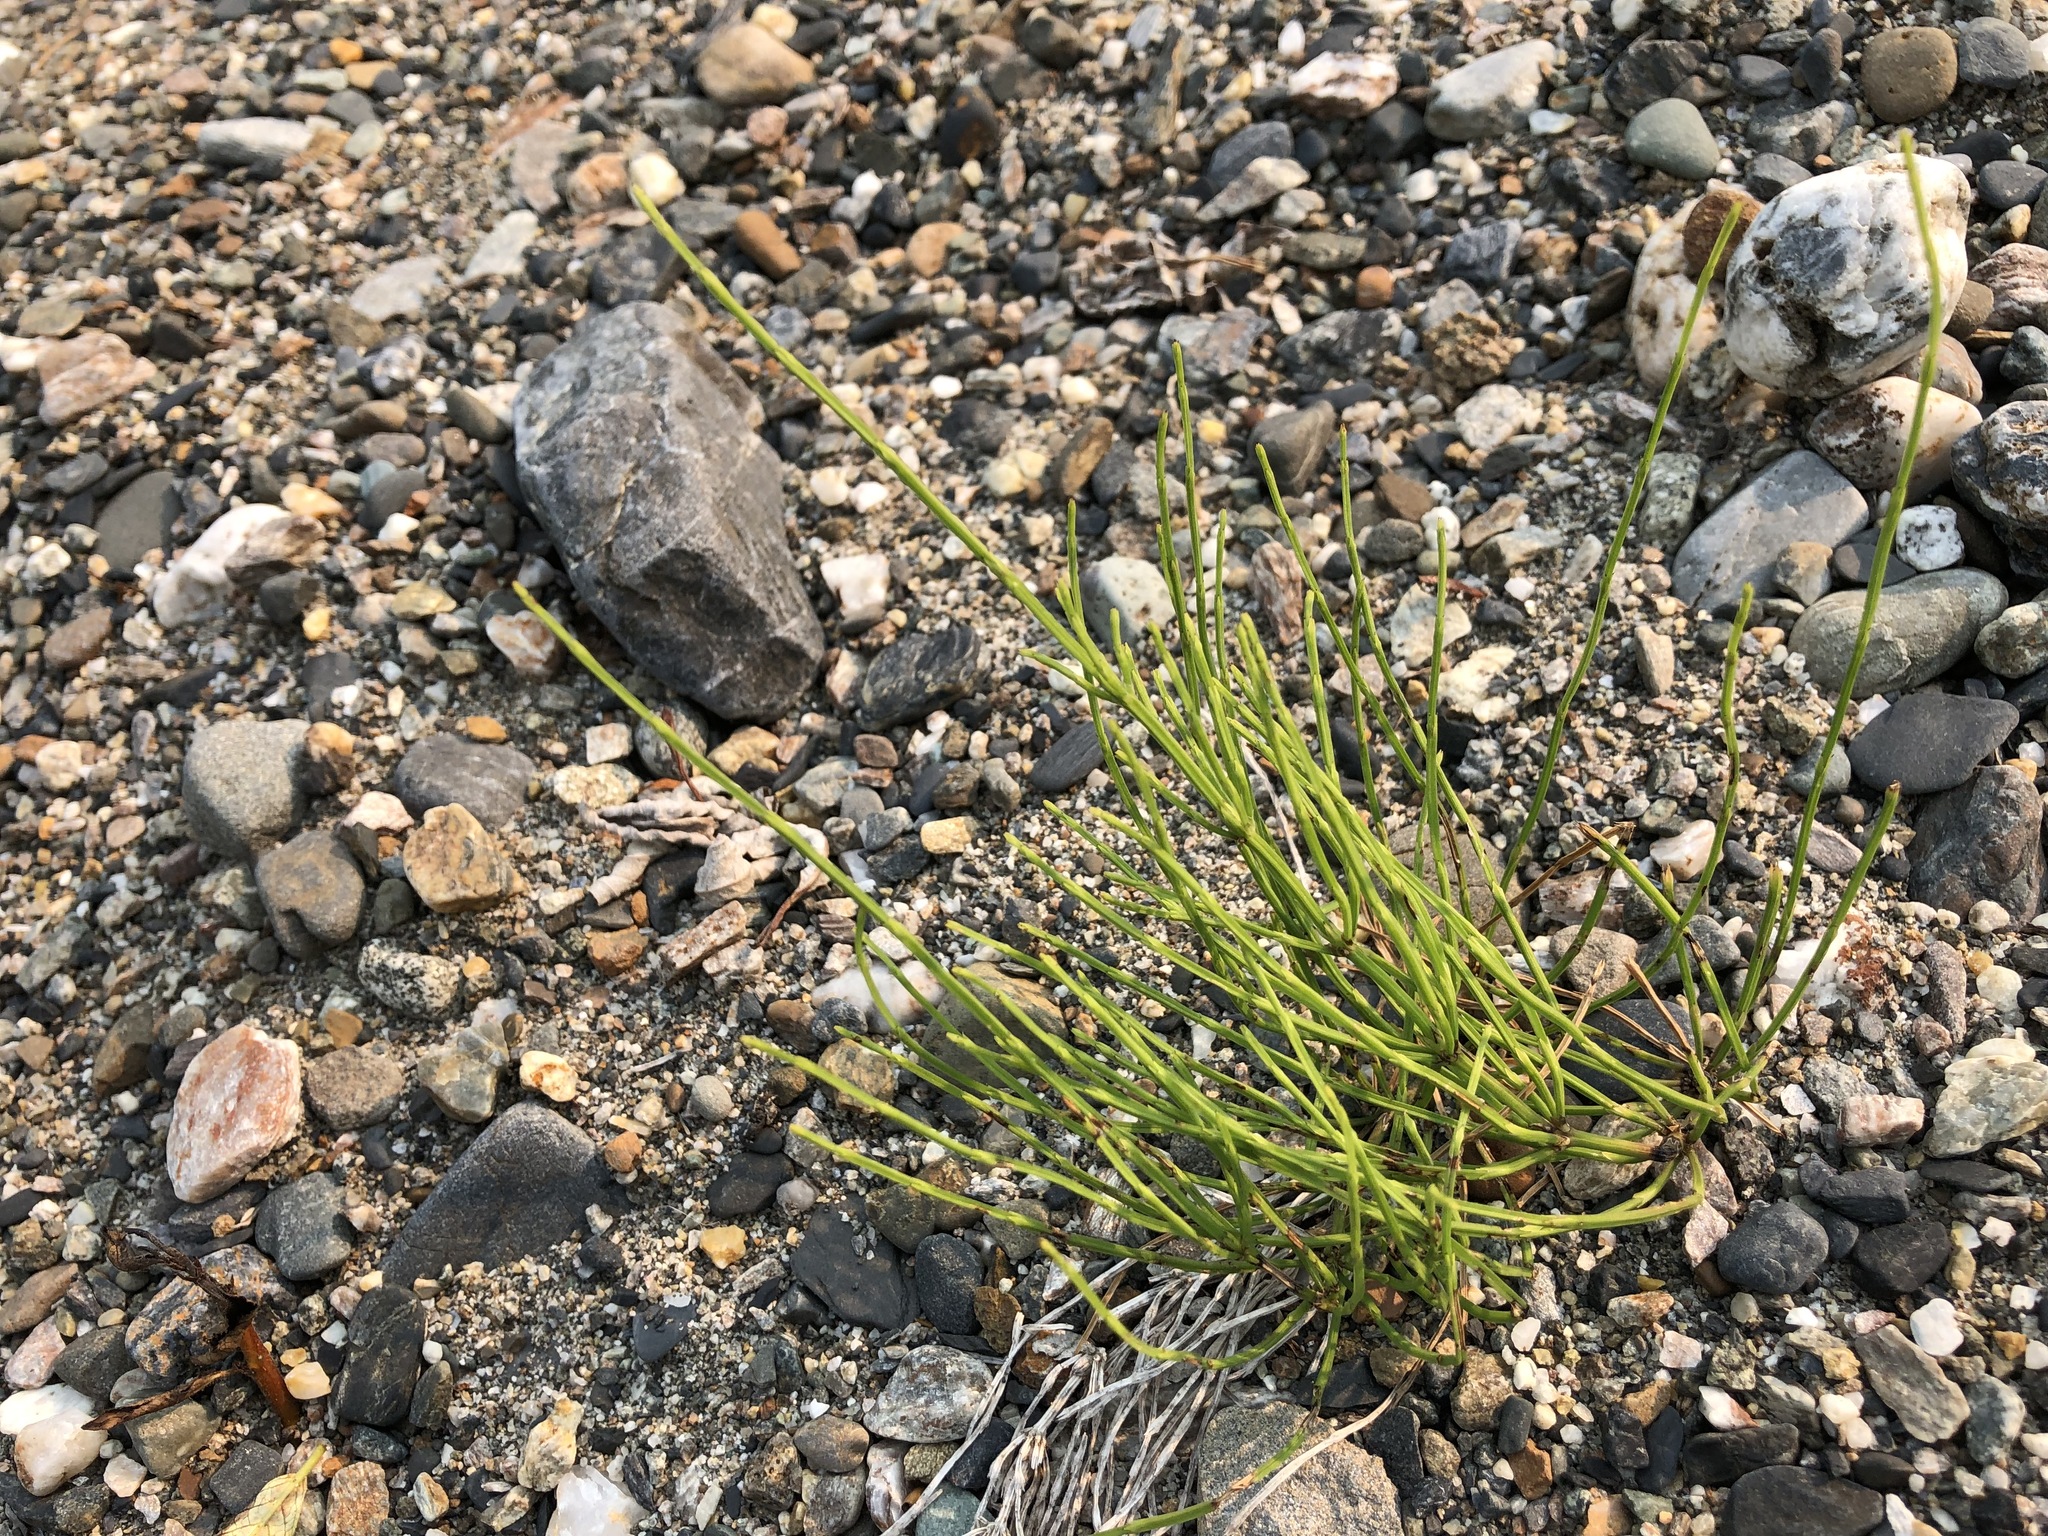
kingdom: Plantae
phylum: Tracheophyta
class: Polypodiopsida
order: Equisetales
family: Equisetaceae
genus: Equisetum
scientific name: Equisetum arvense
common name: Field horsetail
